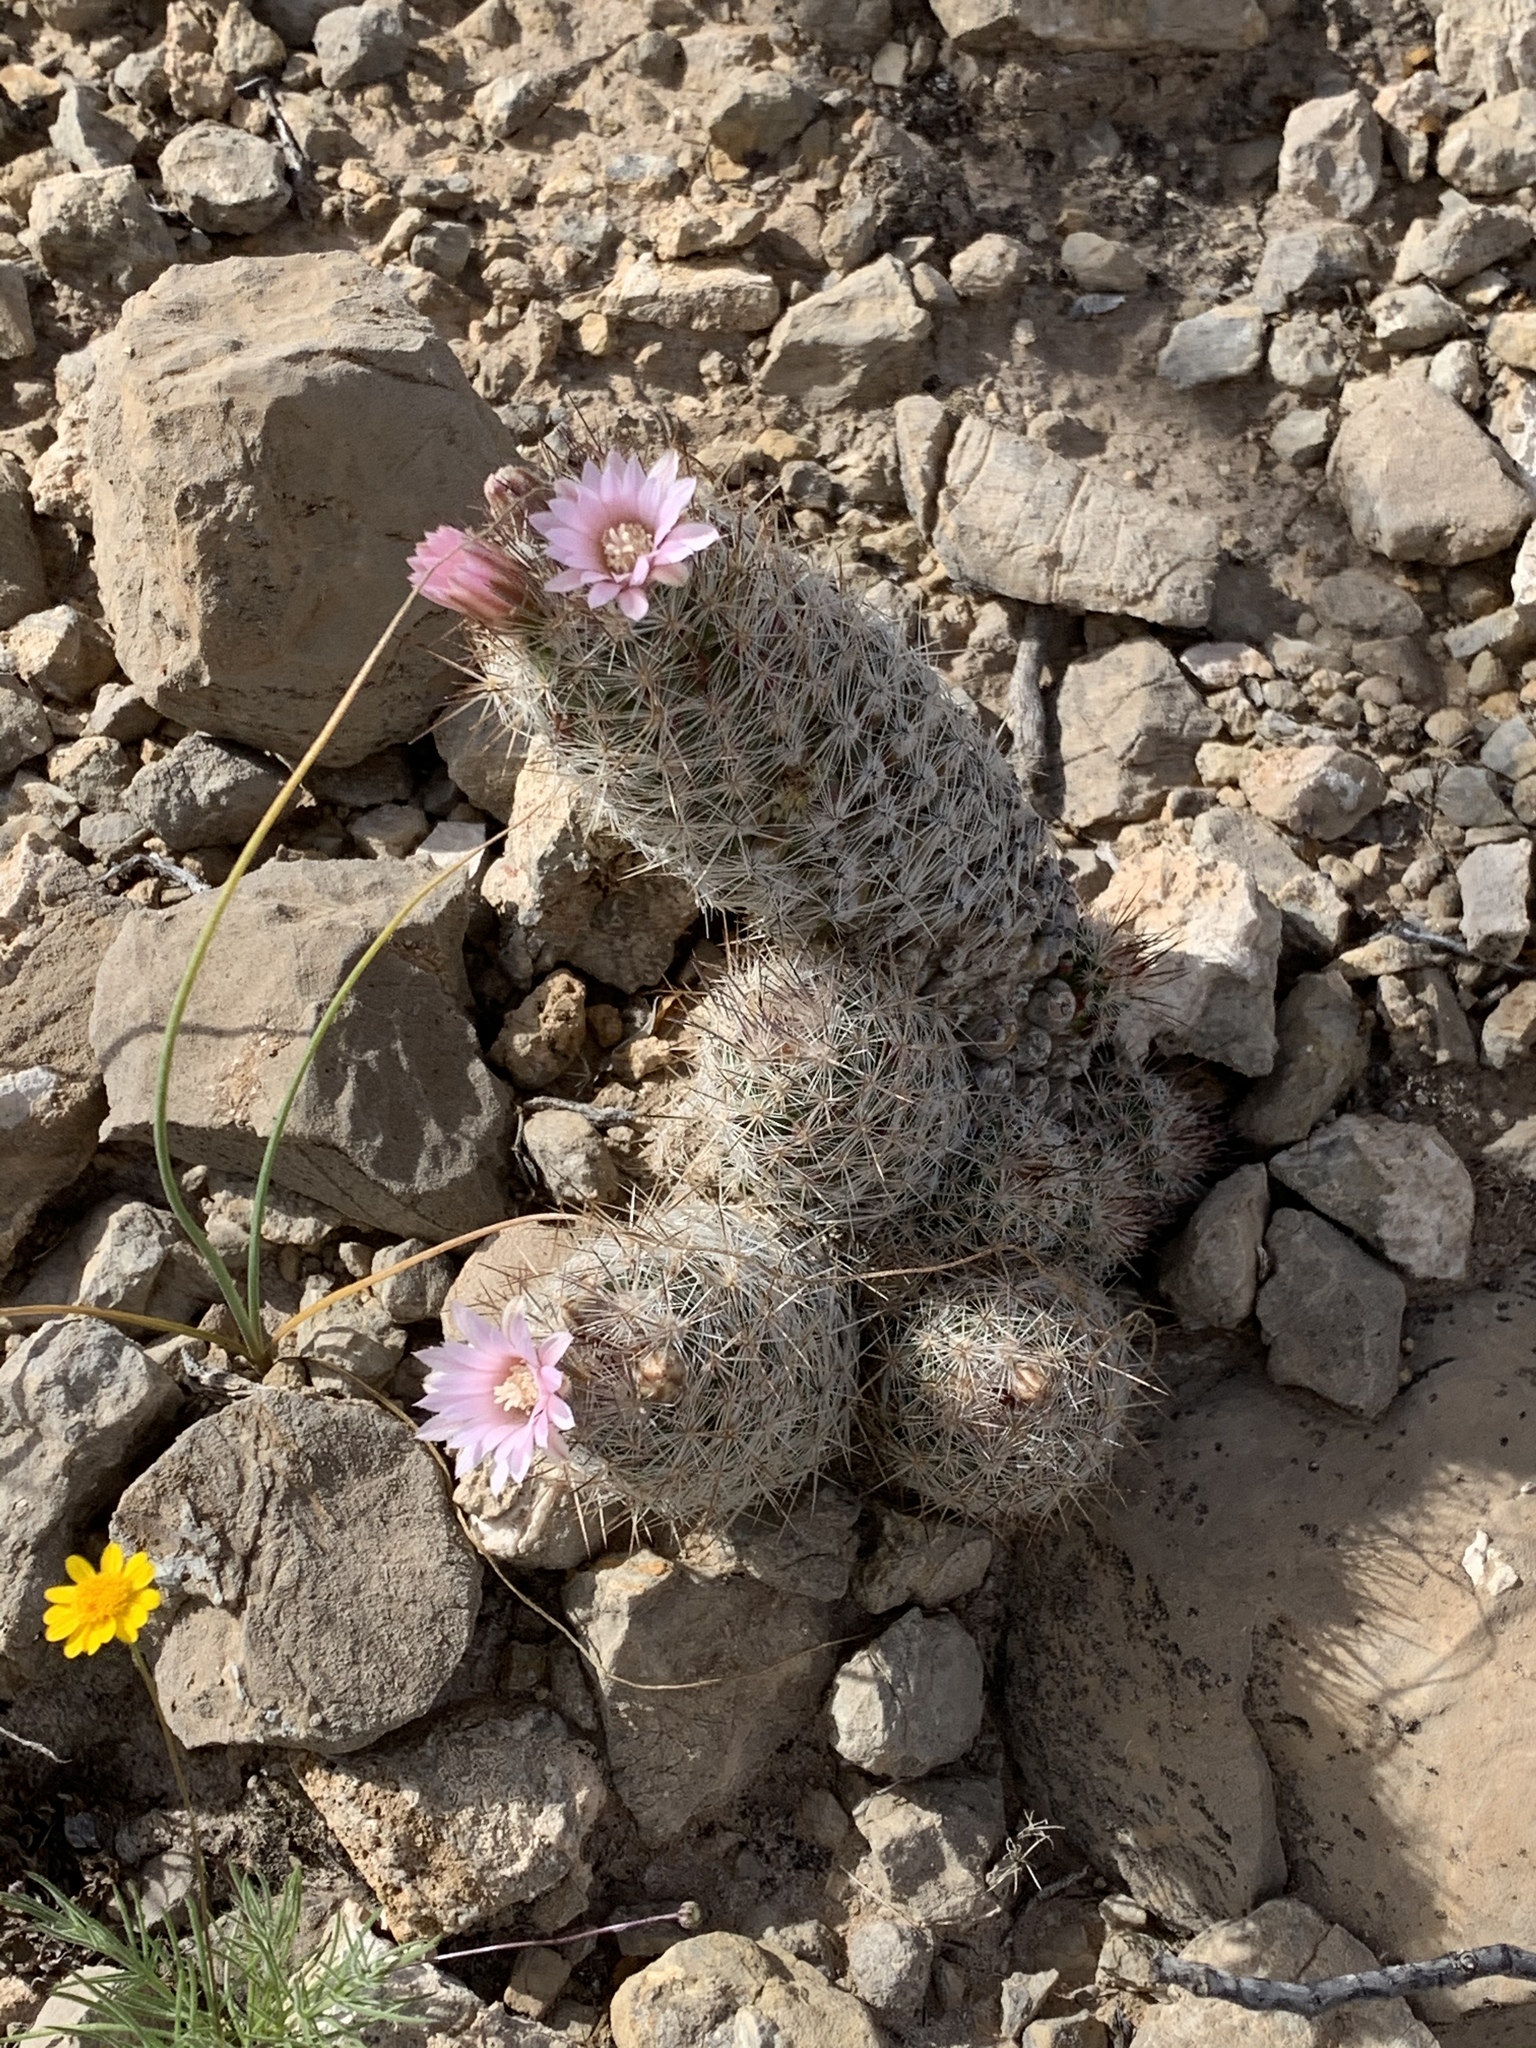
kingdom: Plantae
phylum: Tracheophyta
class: Magnoliopsida
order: Caryophyllales
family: Cactaceae
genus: Pelecyphora
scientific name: Pelecyphora tuberculosa
